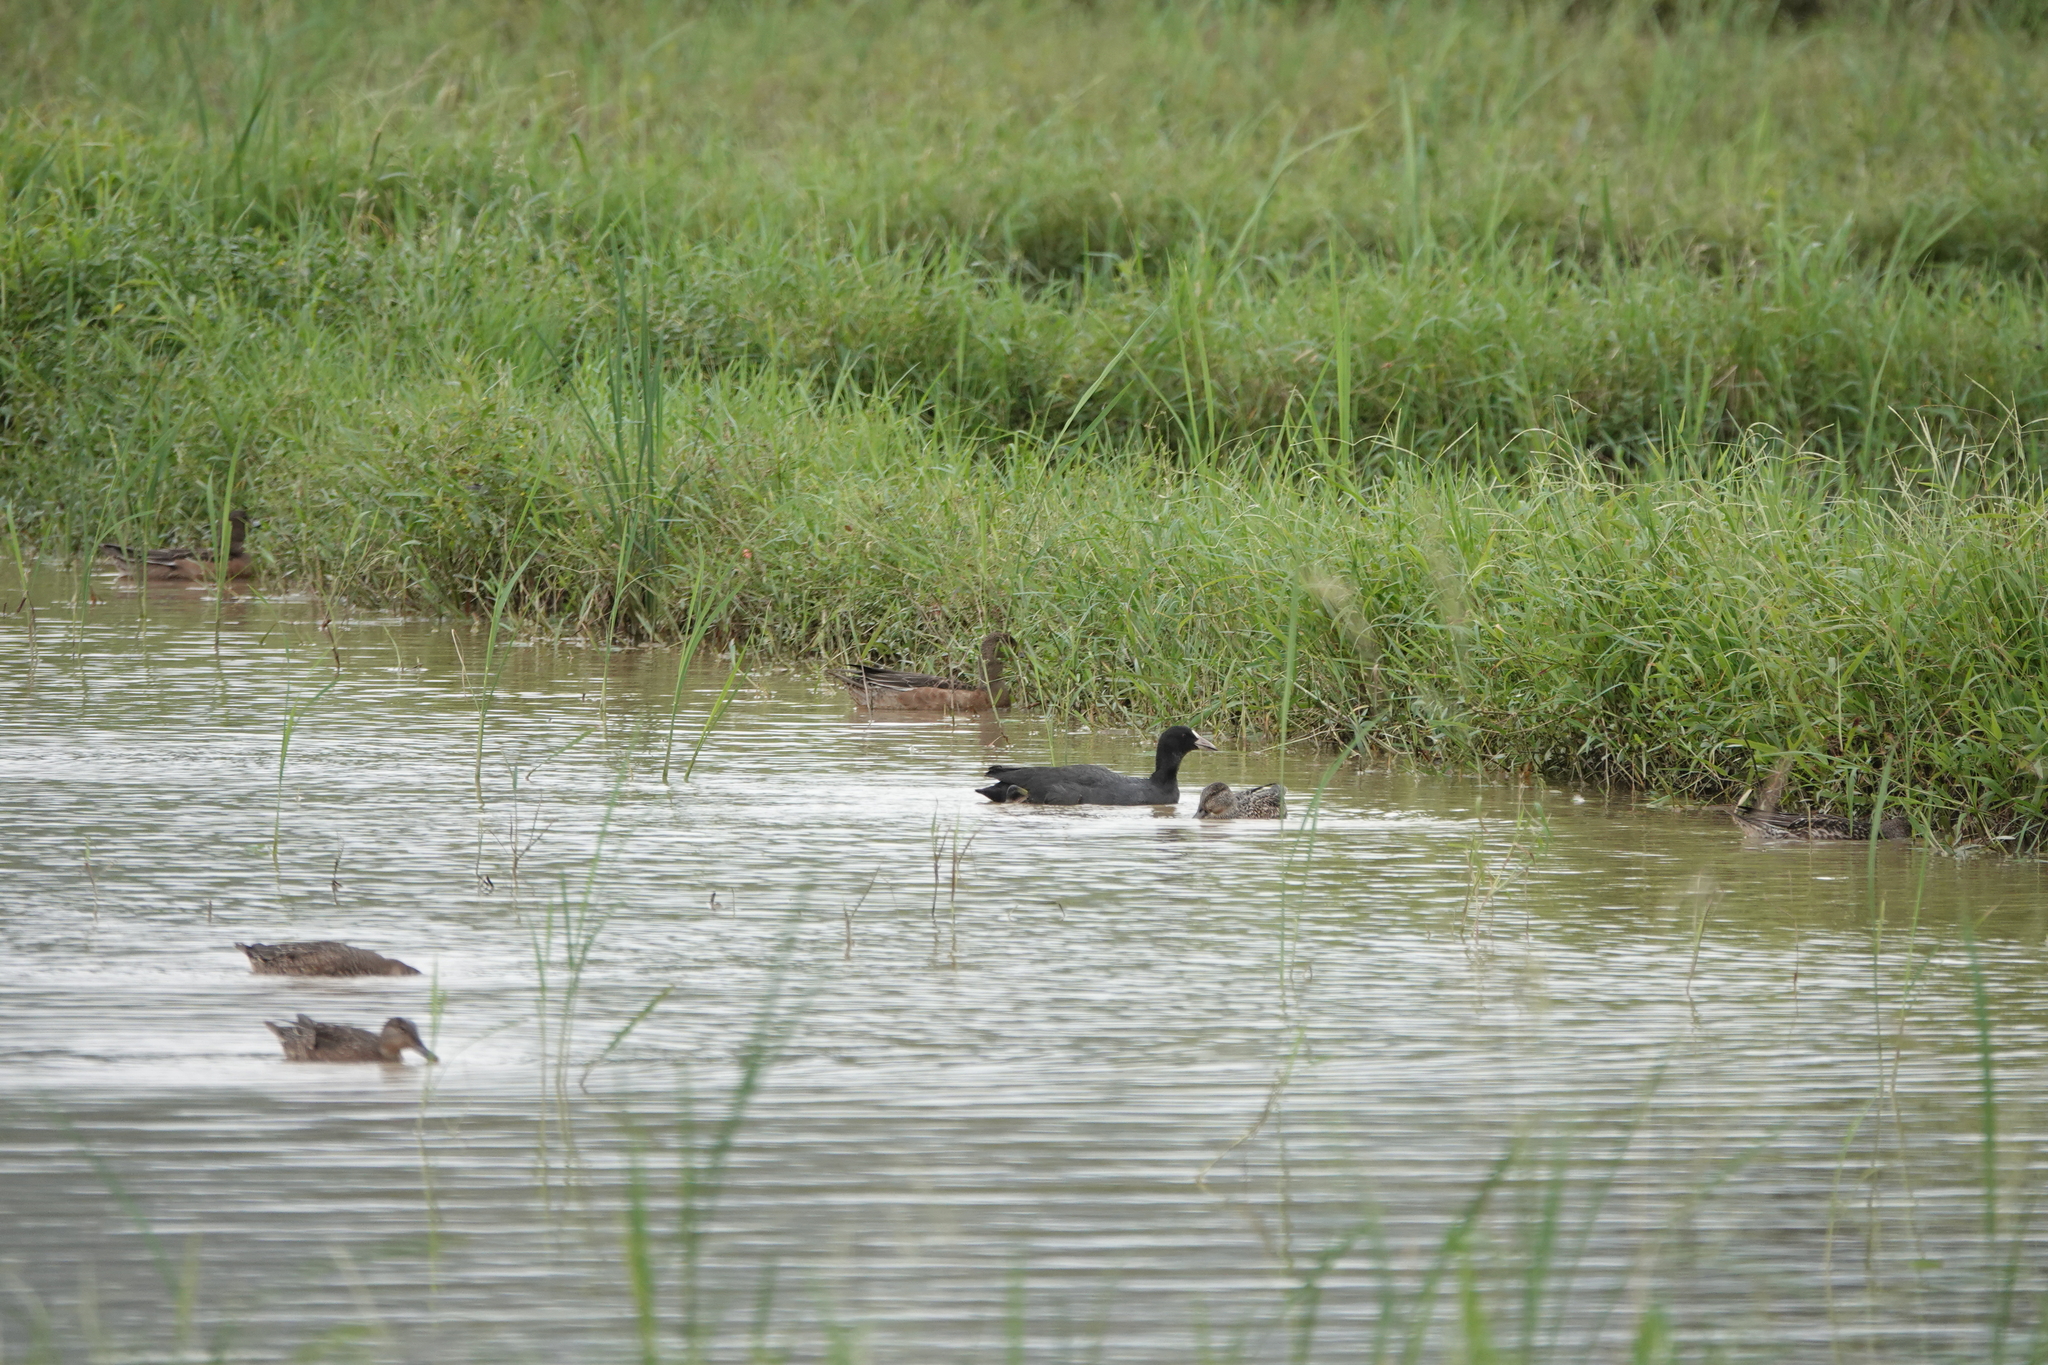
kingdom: Animalia
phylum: Chordata
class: Aves
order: Gruiformes
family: Rallidae
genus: Fulica
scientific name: Fulica atra
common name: Eurasian coot
